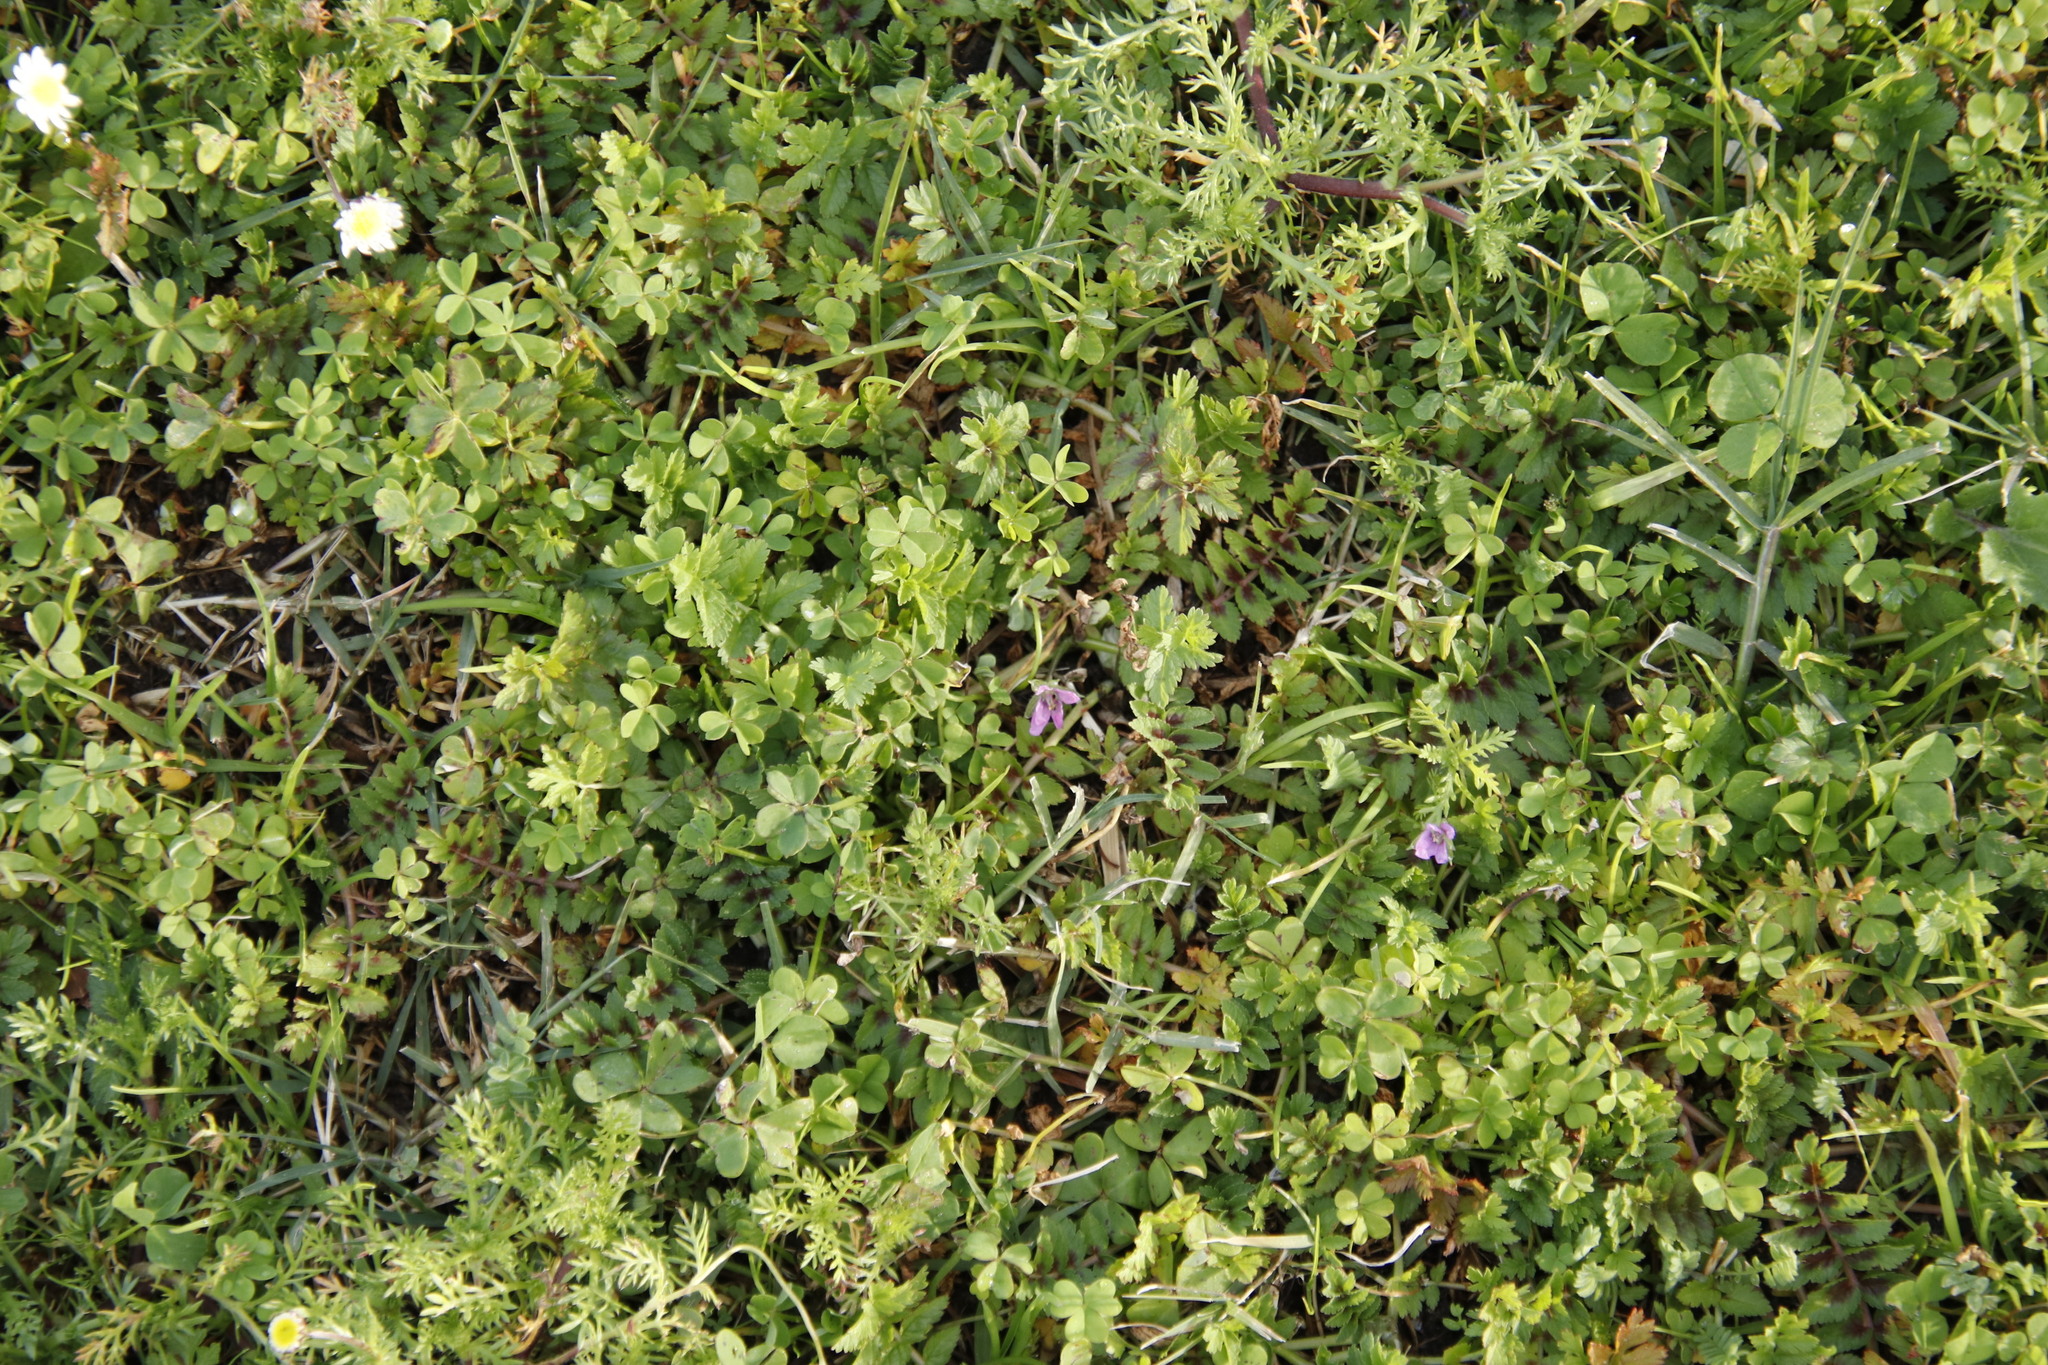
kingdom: Plantae
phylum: Tracheophyta
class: Magnoliopsida
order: Geraniales
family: Geraniaceae
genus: Erodium
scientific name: Erodium moschatum
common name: Musk stork's-bill
